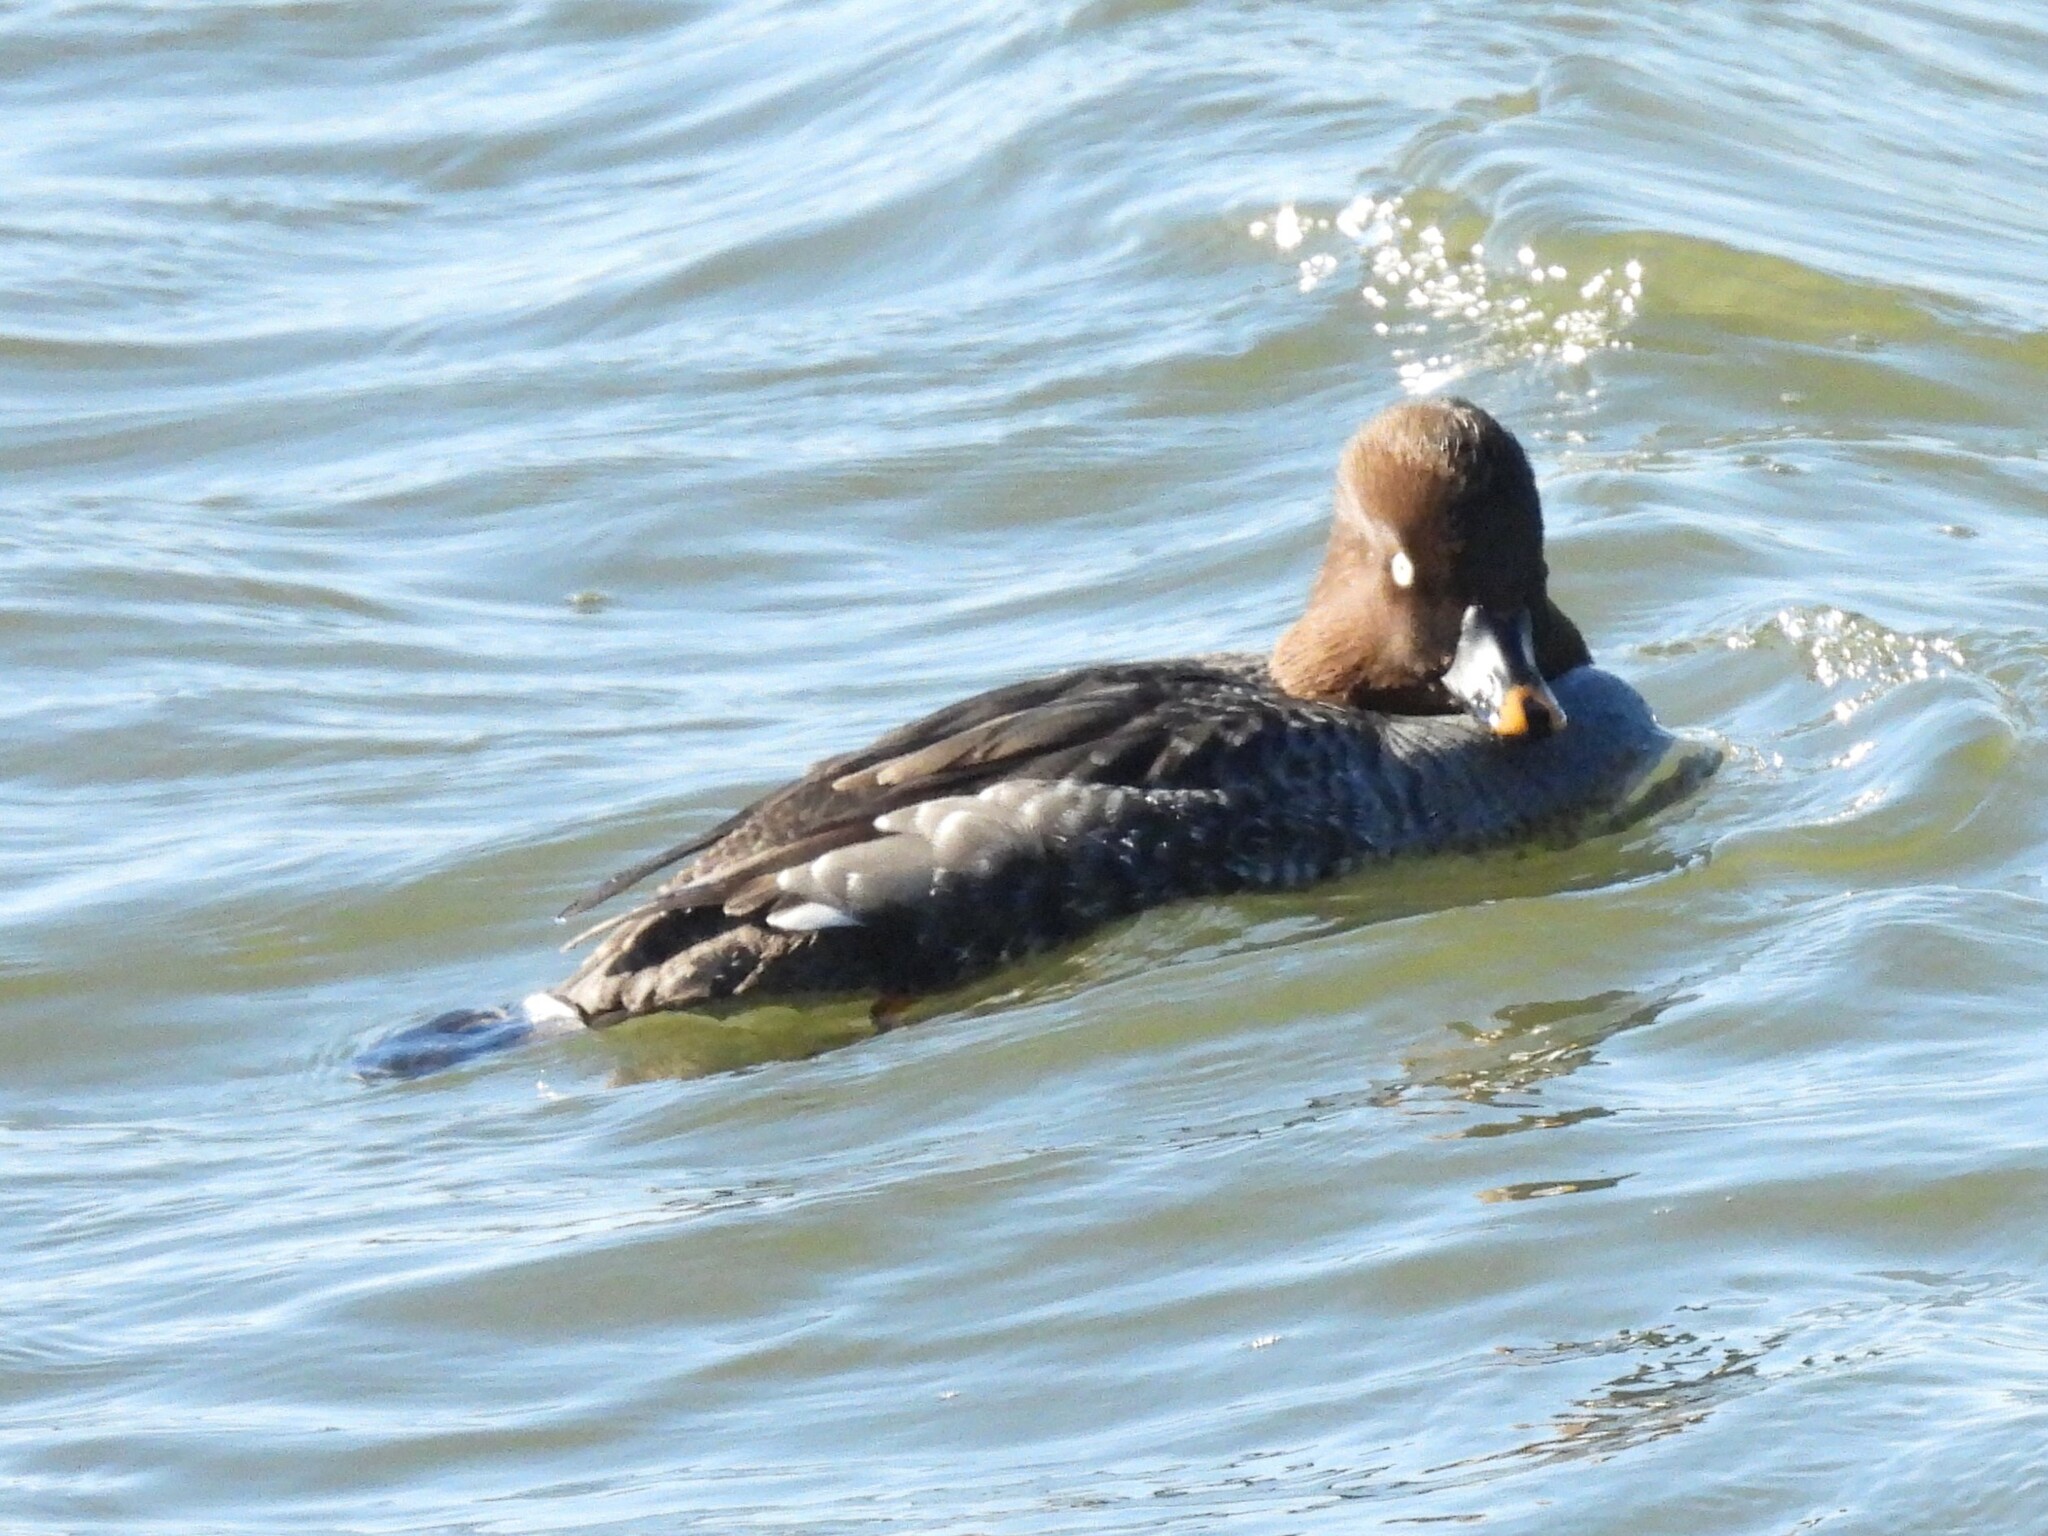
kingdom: Animalia
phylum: Chordata
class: Aves
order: Anseriformes
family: Anatidae
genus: Bucephala
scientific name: Bucephala clangula
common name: Common goldeneye
